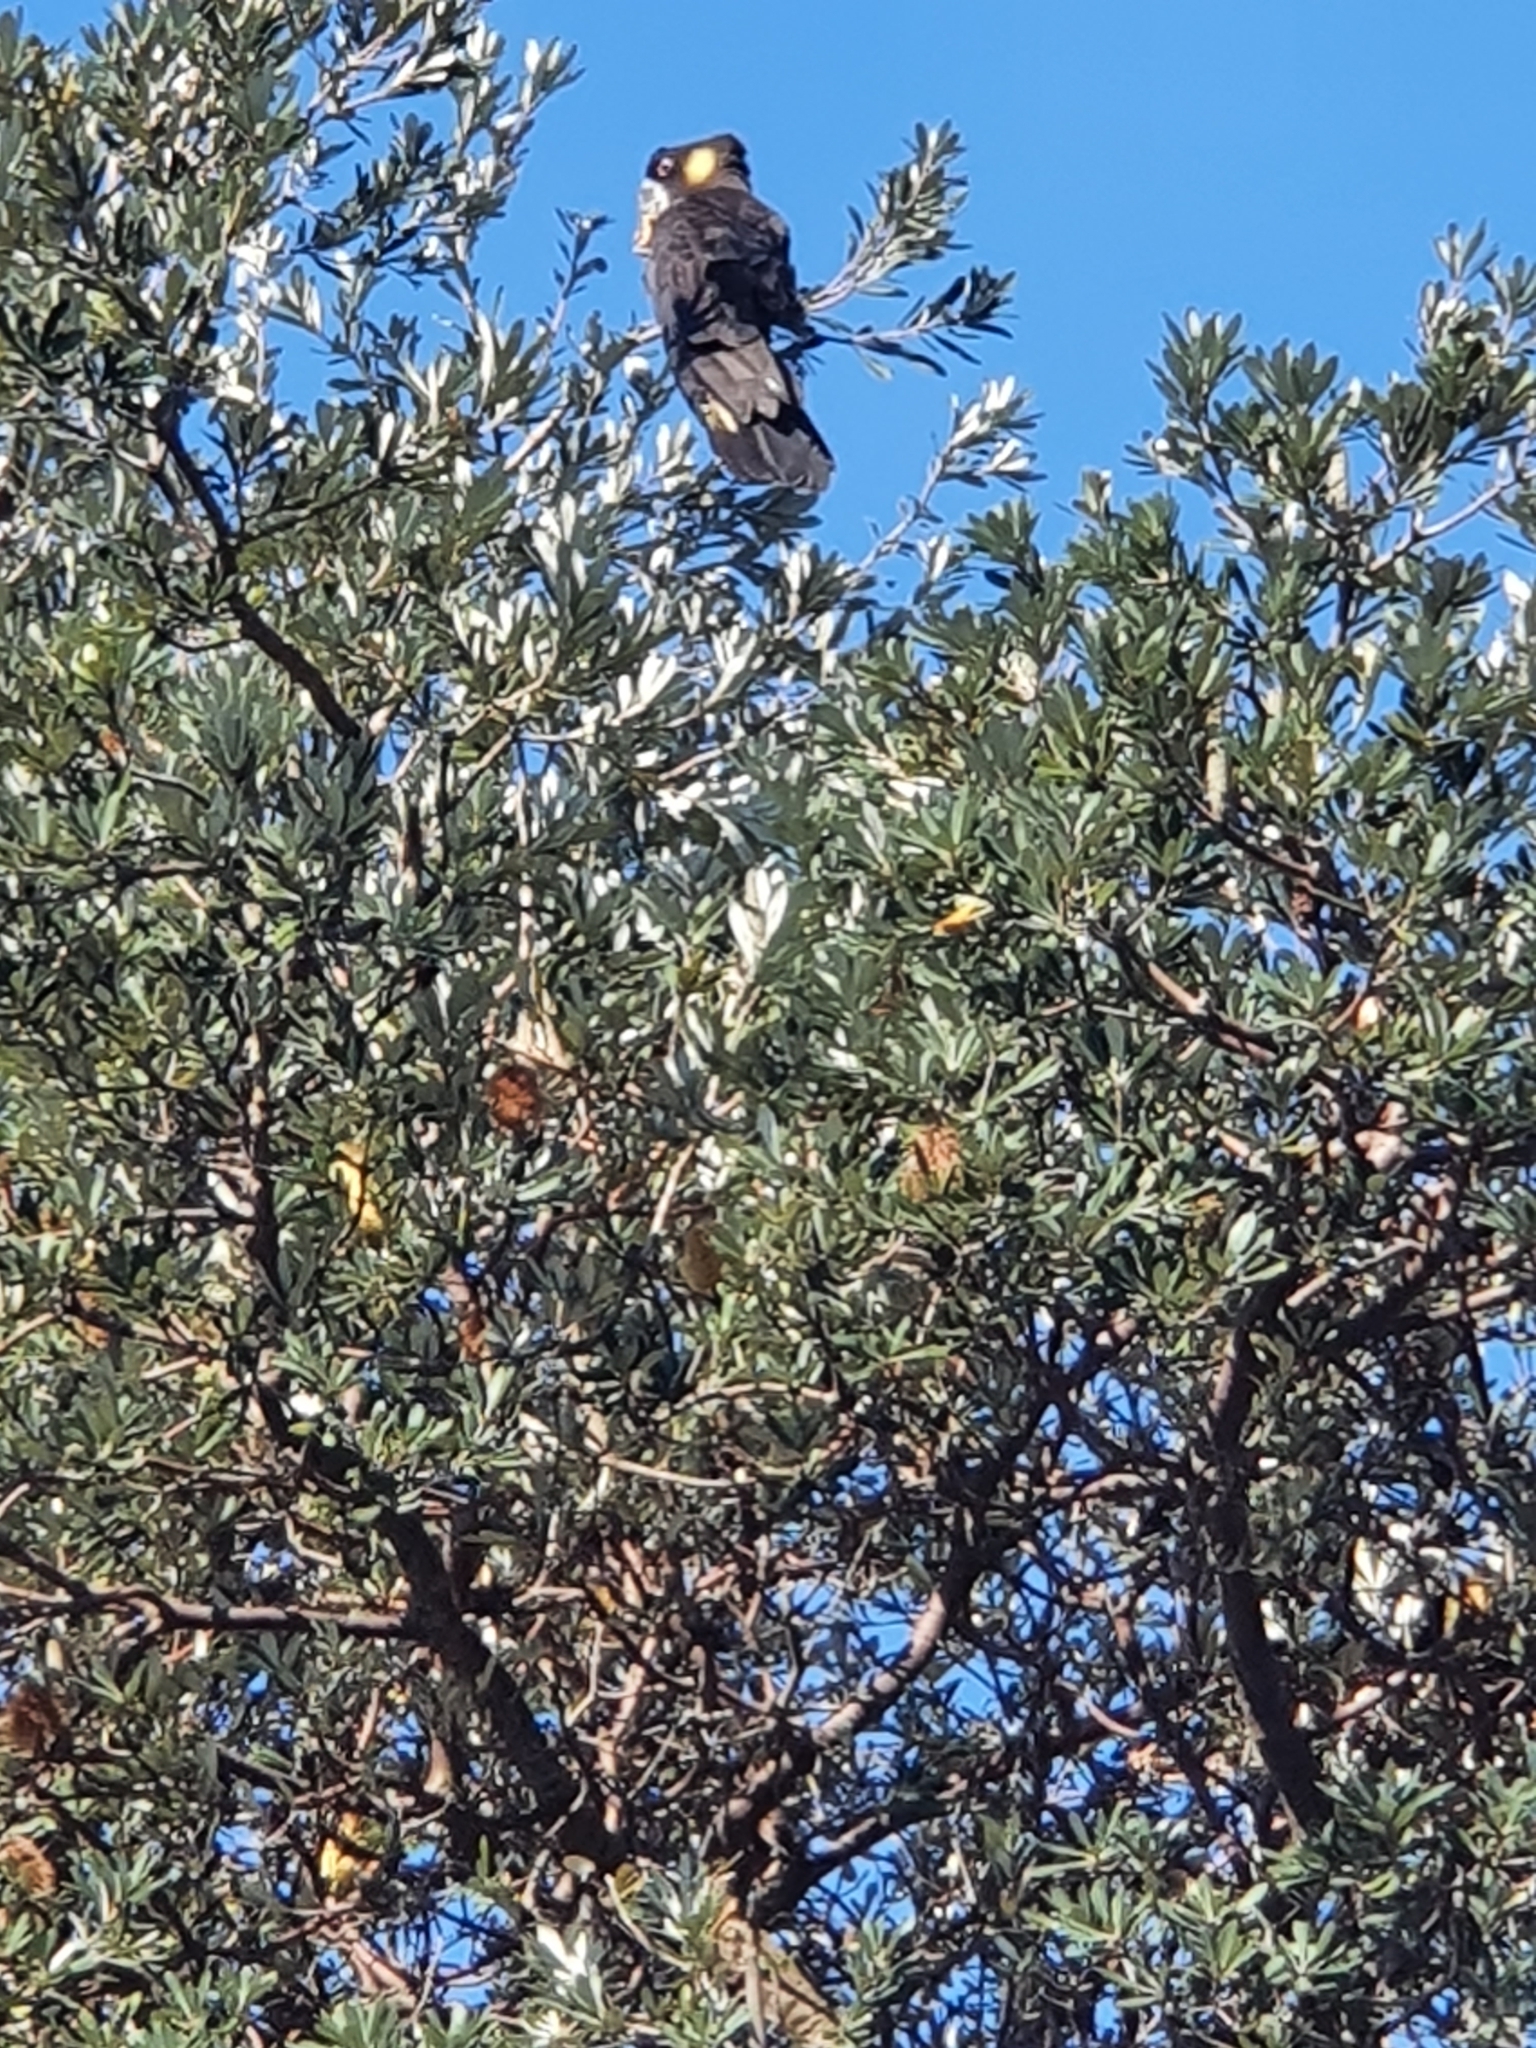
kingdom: Animalia
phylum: Chordata
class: Aves
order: Psittaciformes
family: Cacatuidae
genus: Zanda
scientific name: Zanda funerea
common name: Yellow-tailed black-cockatoo
